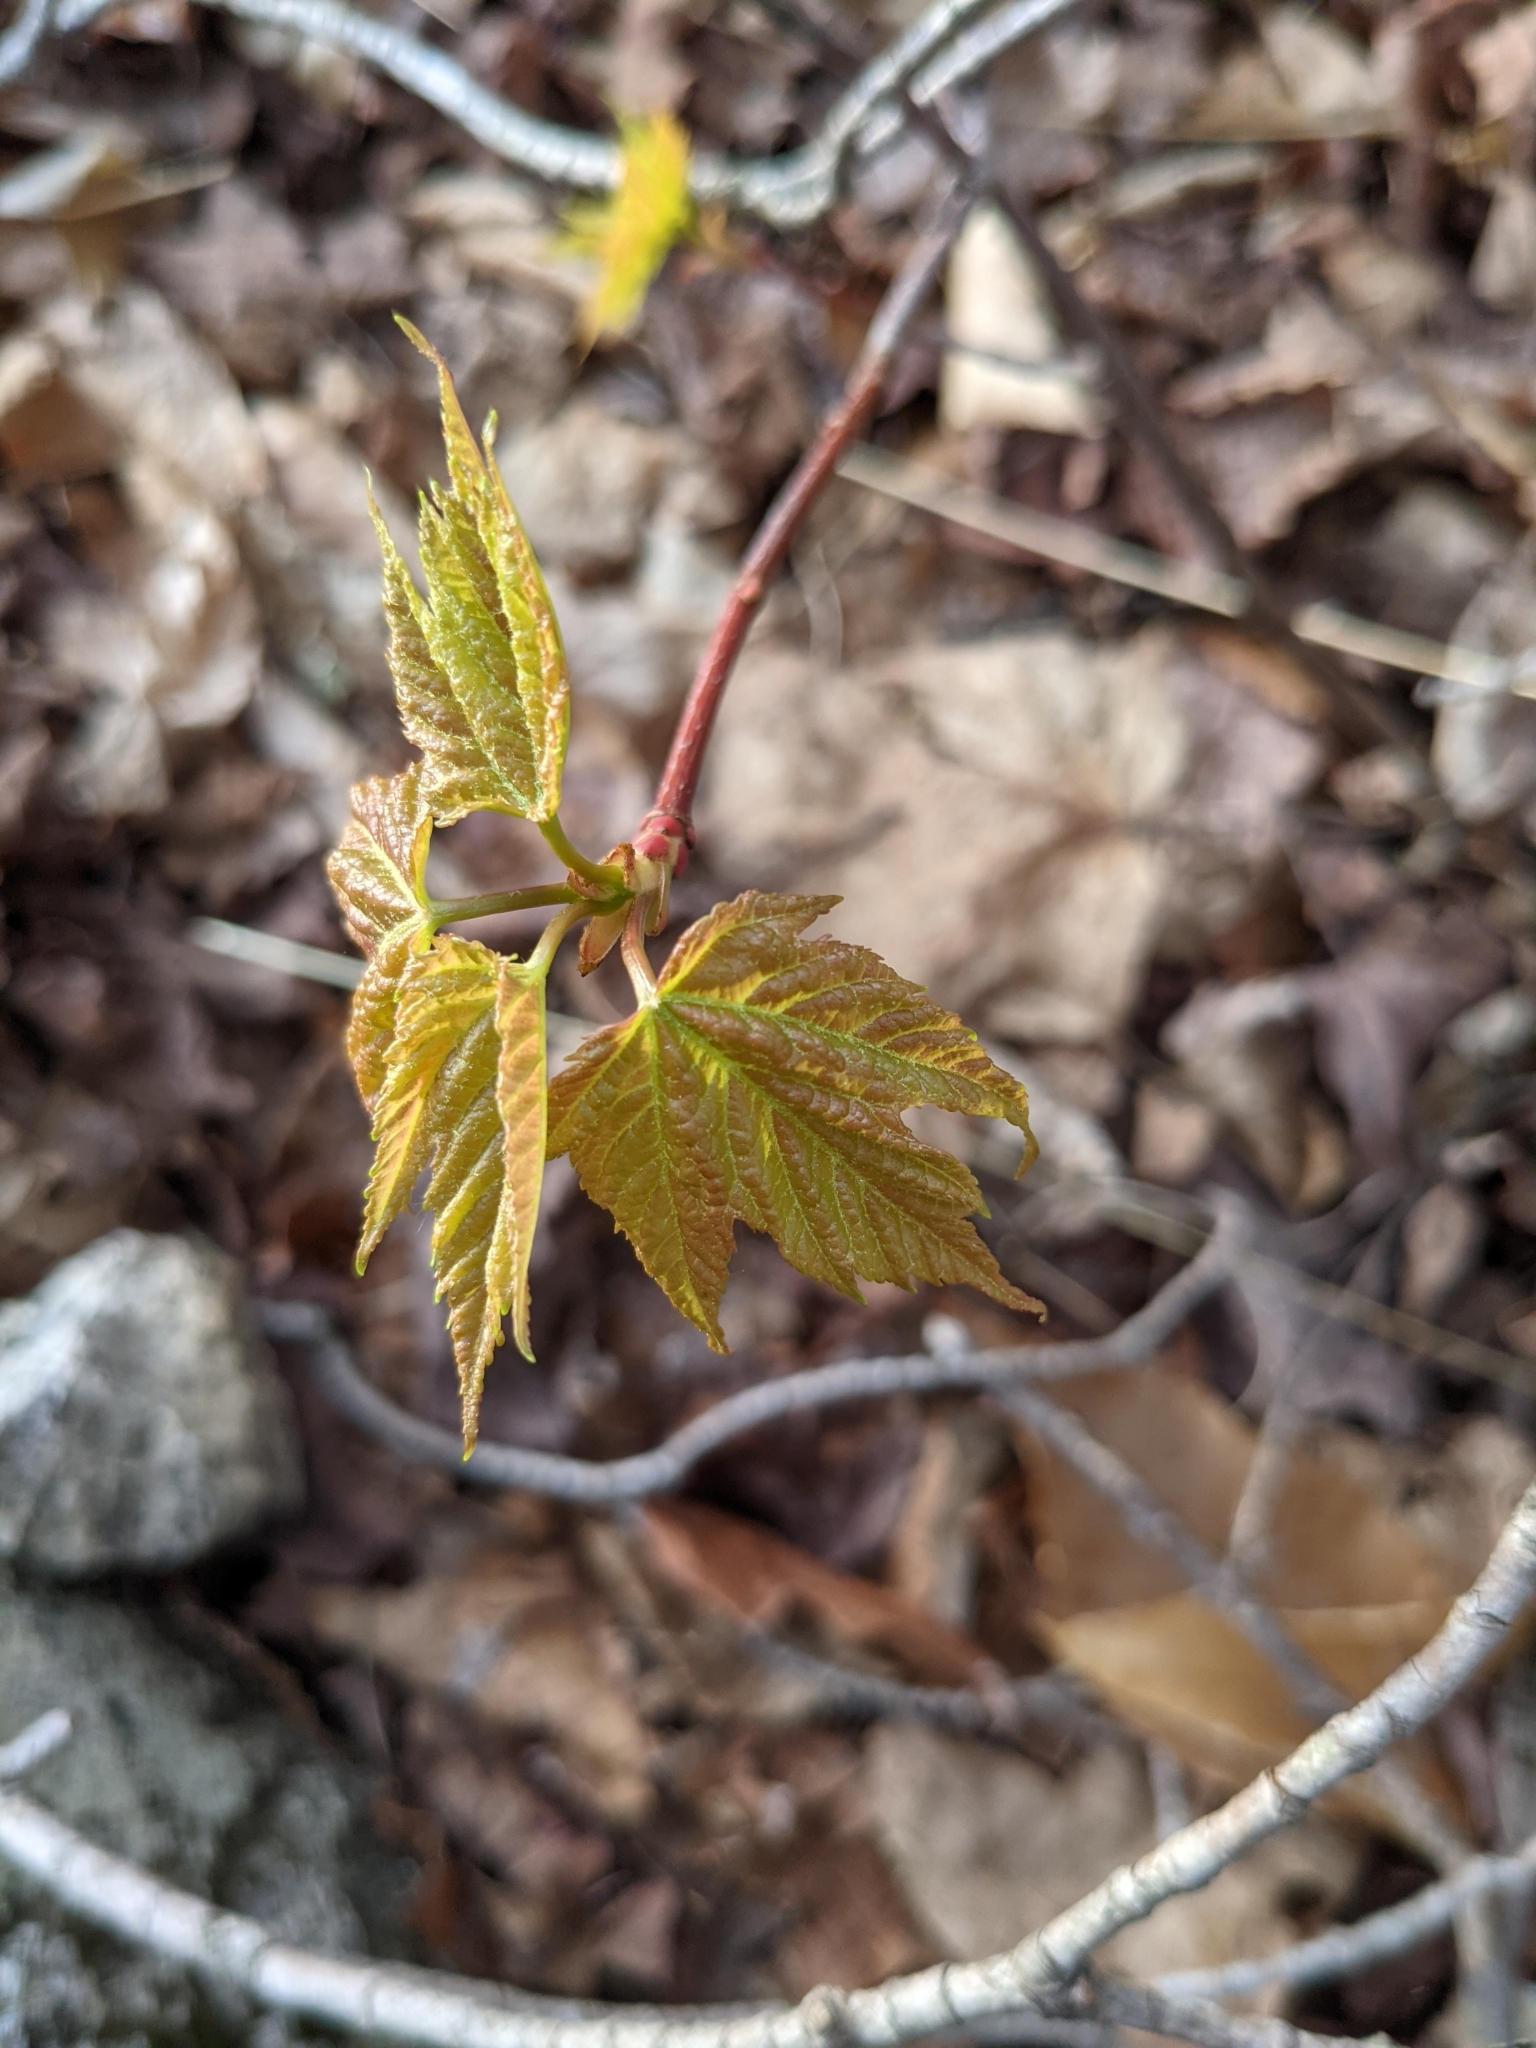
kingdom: Plantae
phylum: Tracheophyta
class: Magnoliopsida
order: Sapindales
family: Sapindaceae
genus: Acer
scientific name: Acer rubrum
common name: Red maple
